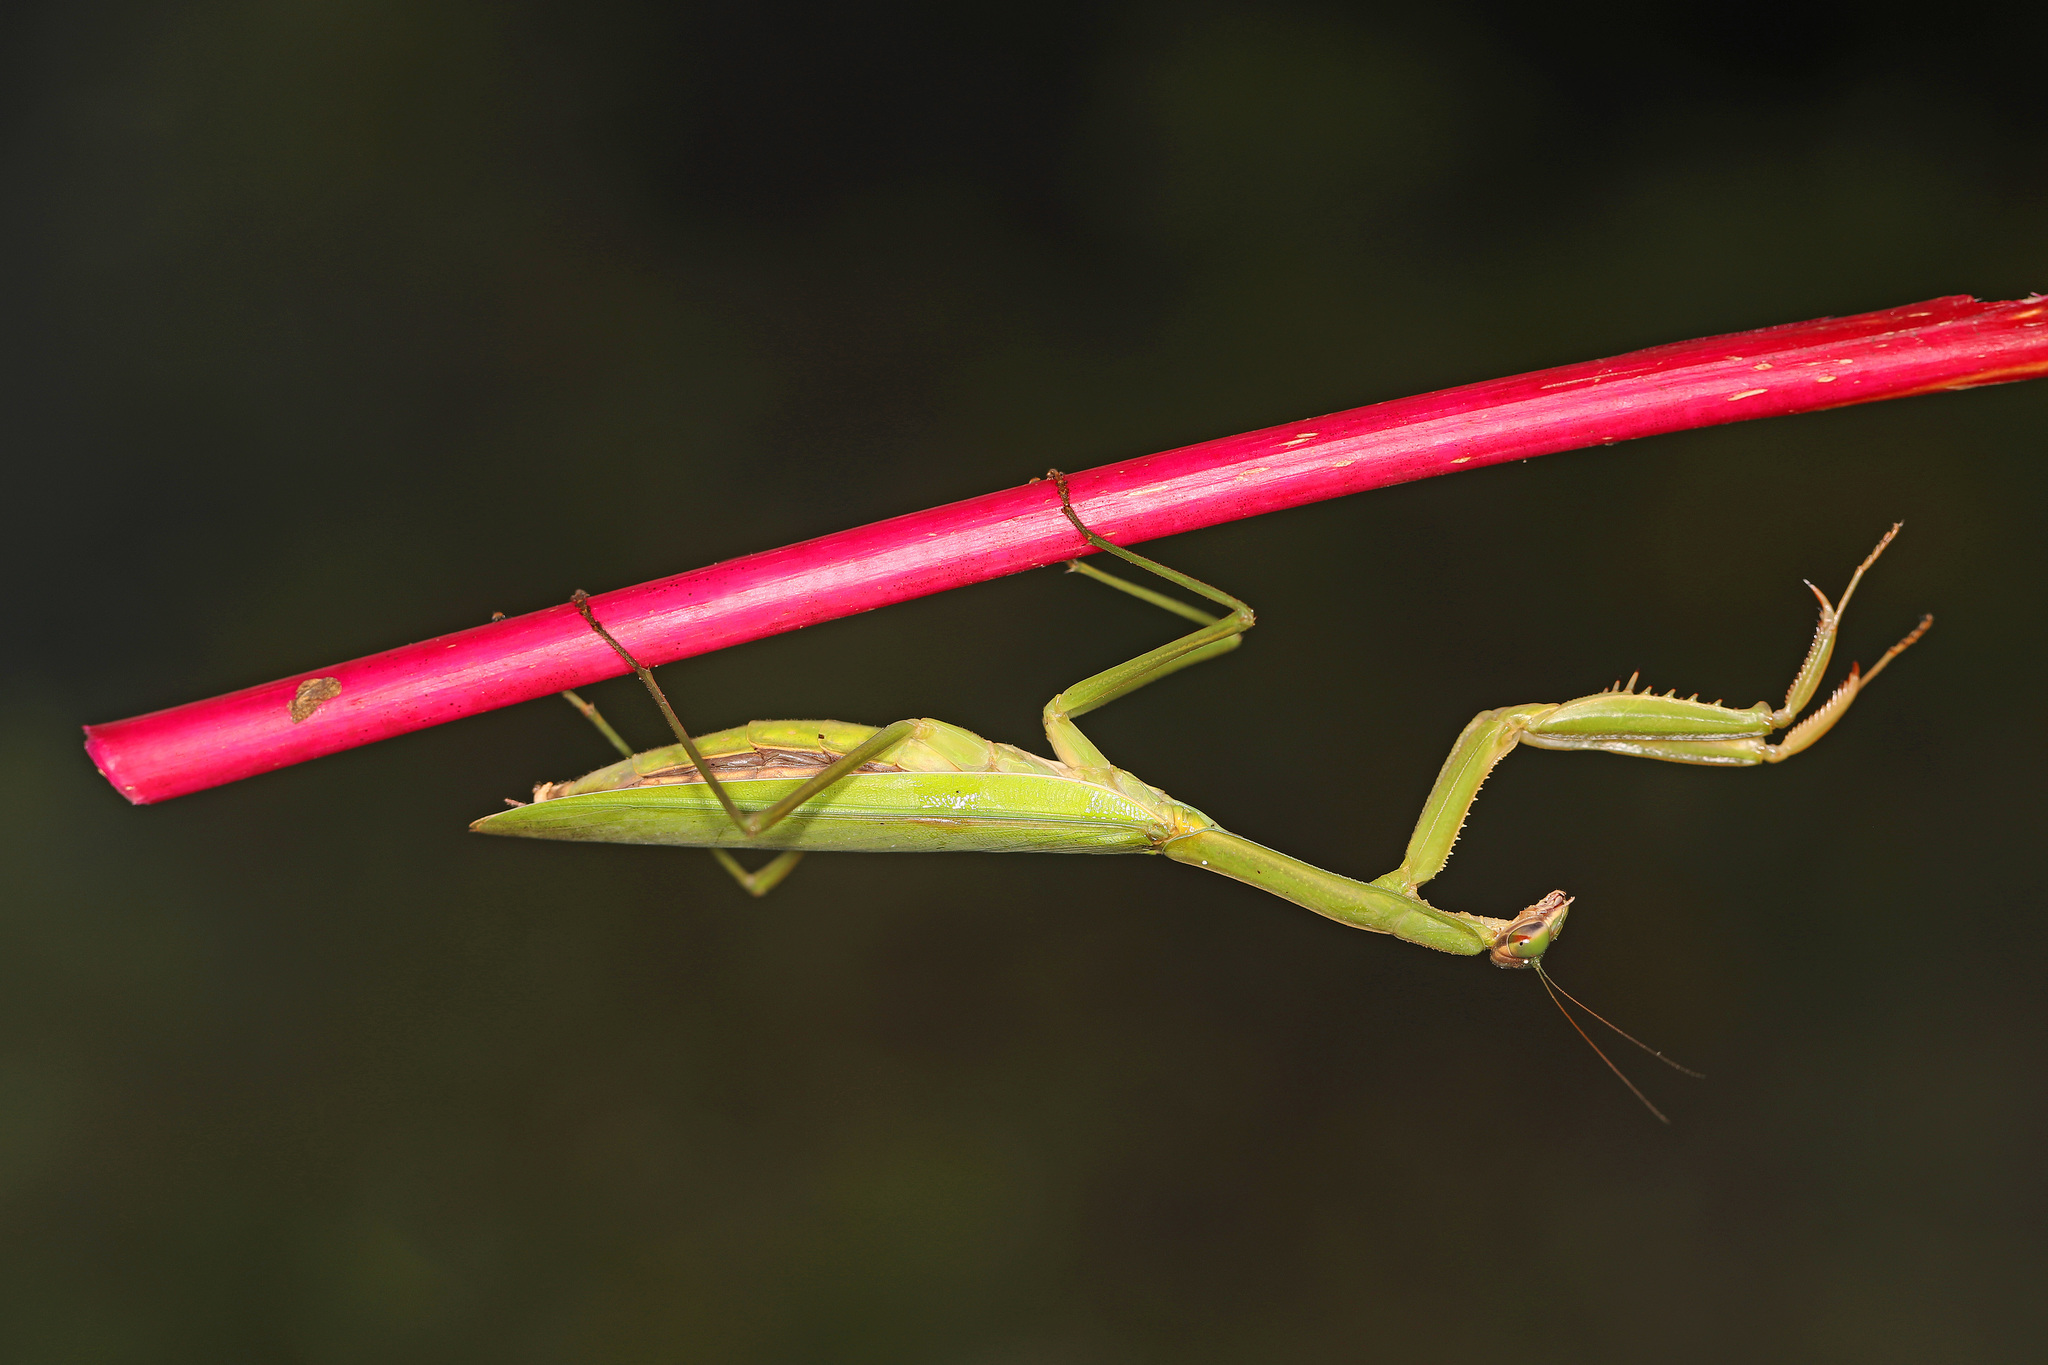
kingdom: Animalia
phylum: Arthropoda
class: Insecta
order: Mantodea
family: Mantidae
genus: Tenodera
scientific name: Tenodera sinensis
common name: Chinese mantis
